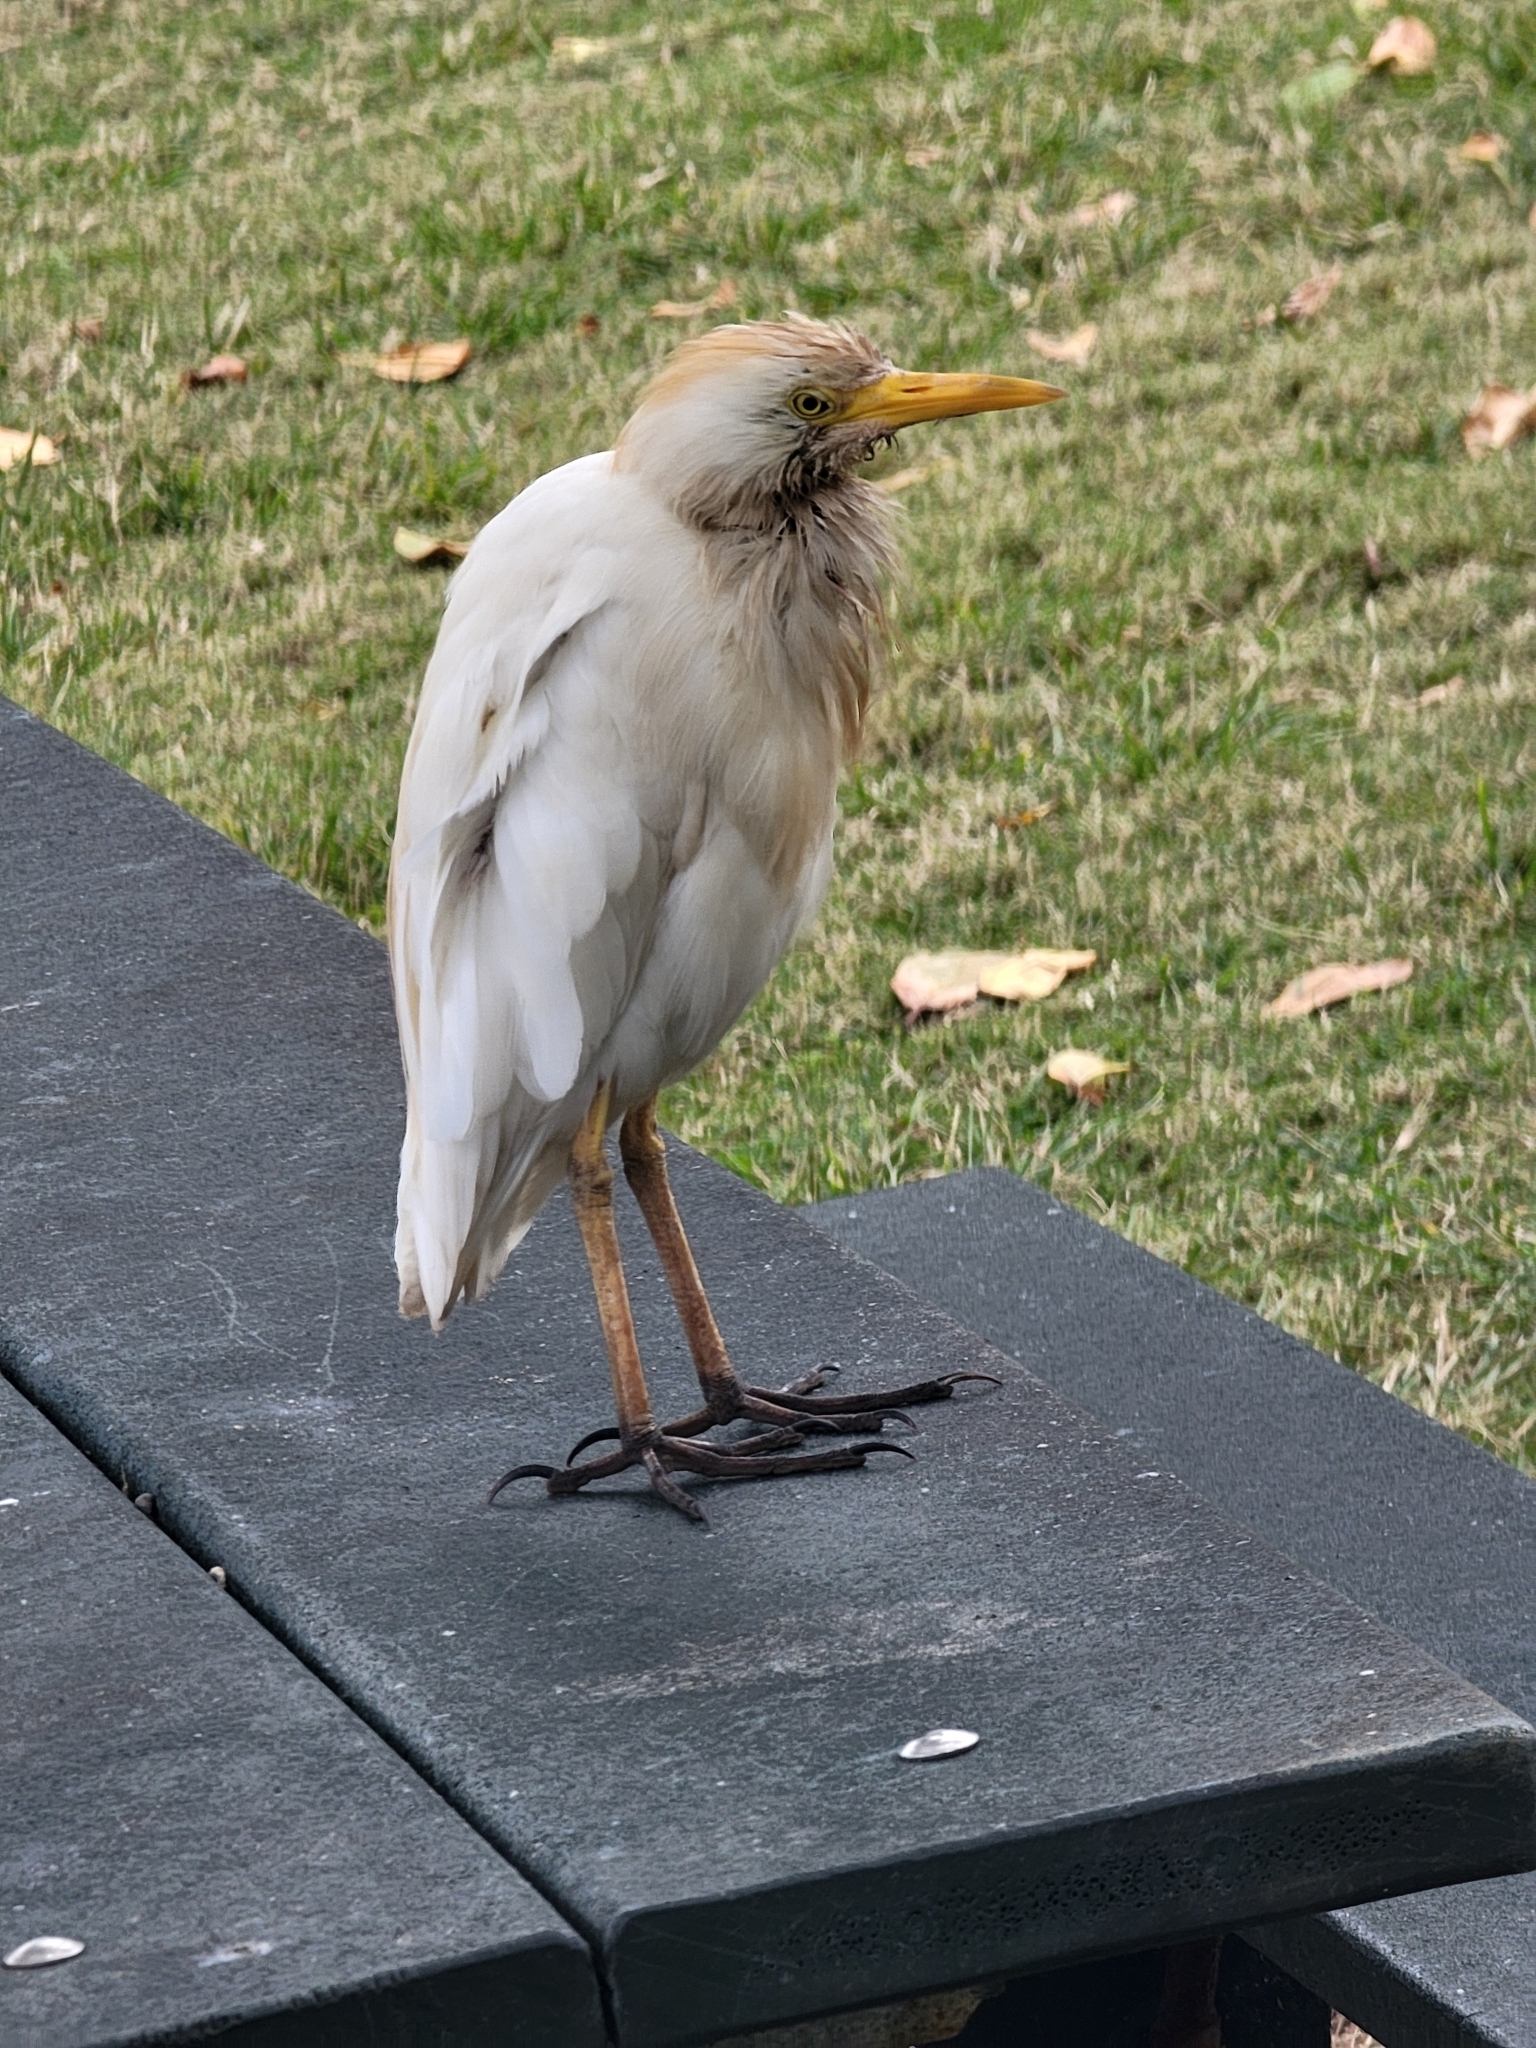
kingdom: Animalia
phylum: Chordata
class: Aves
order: Pelecaniformes
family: Ardeidae
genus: Bubulcus
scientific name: Bubulcus ibis
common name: Cattle egret
